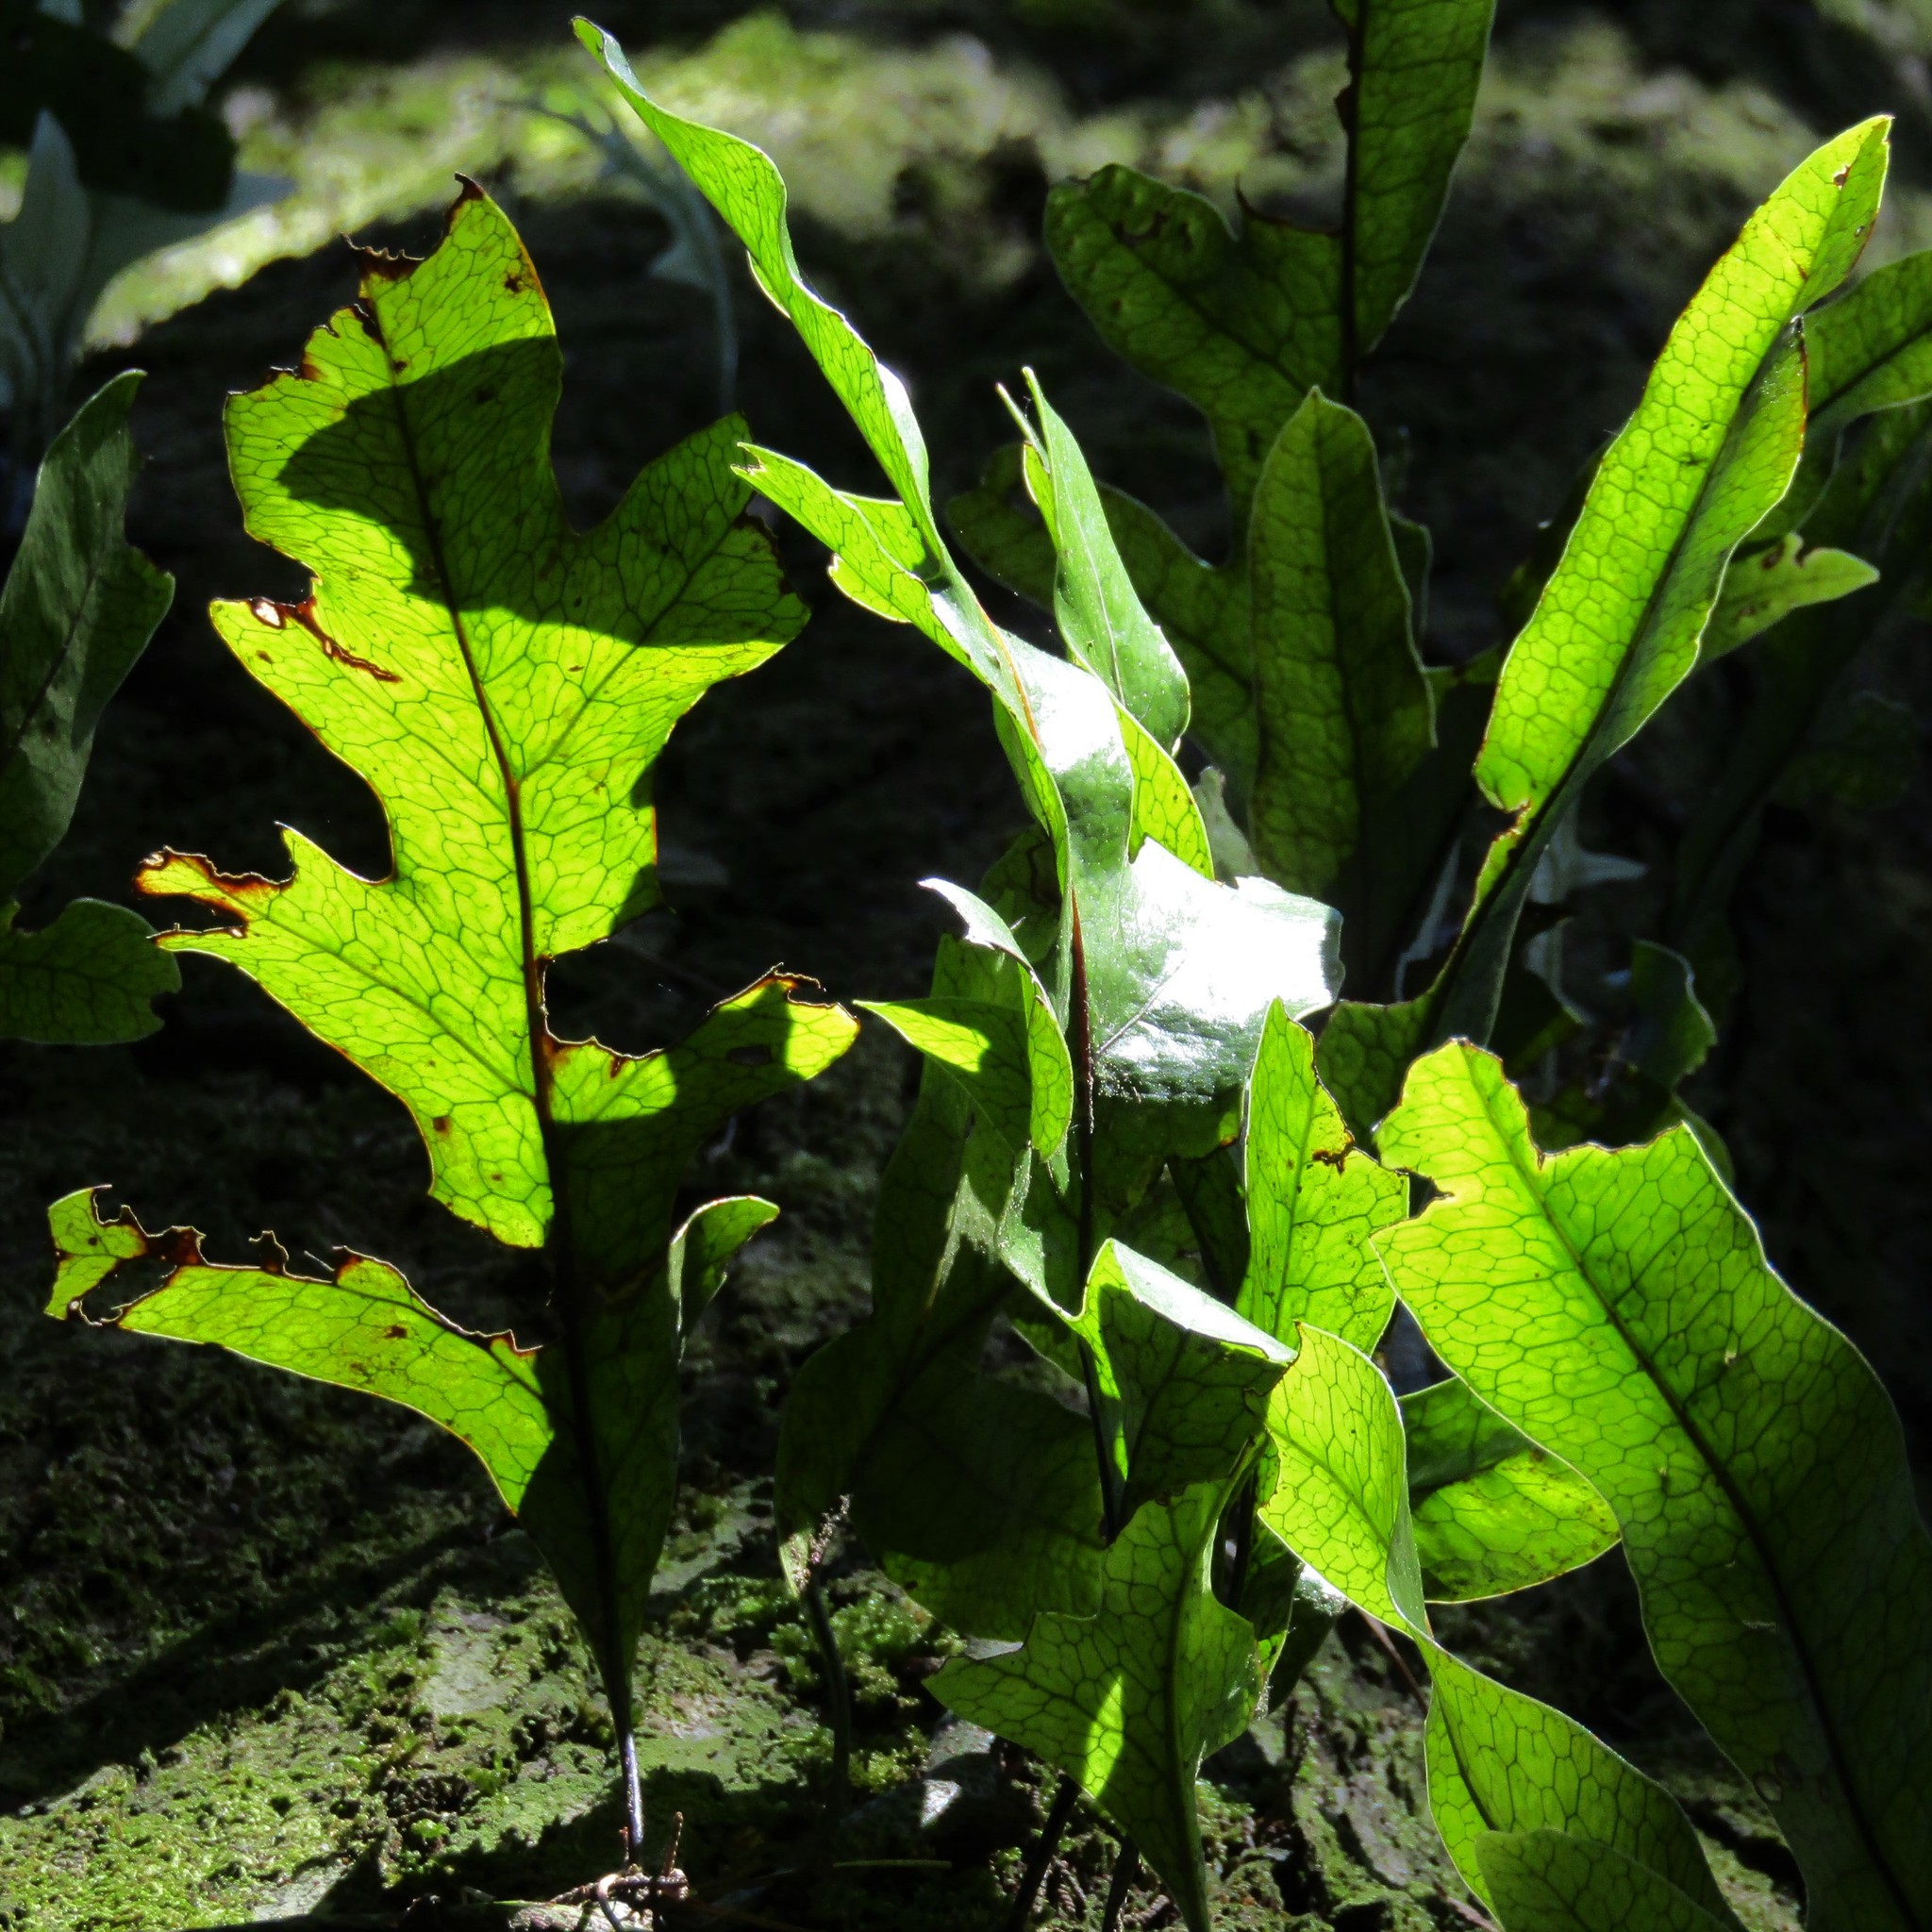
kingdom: Plantae
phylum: Tracheophyta
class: Polypodiopsida
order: Polypodiales
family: Polypodiaceae
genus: Lecanopteris
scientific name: Lecanopteris pustulata
